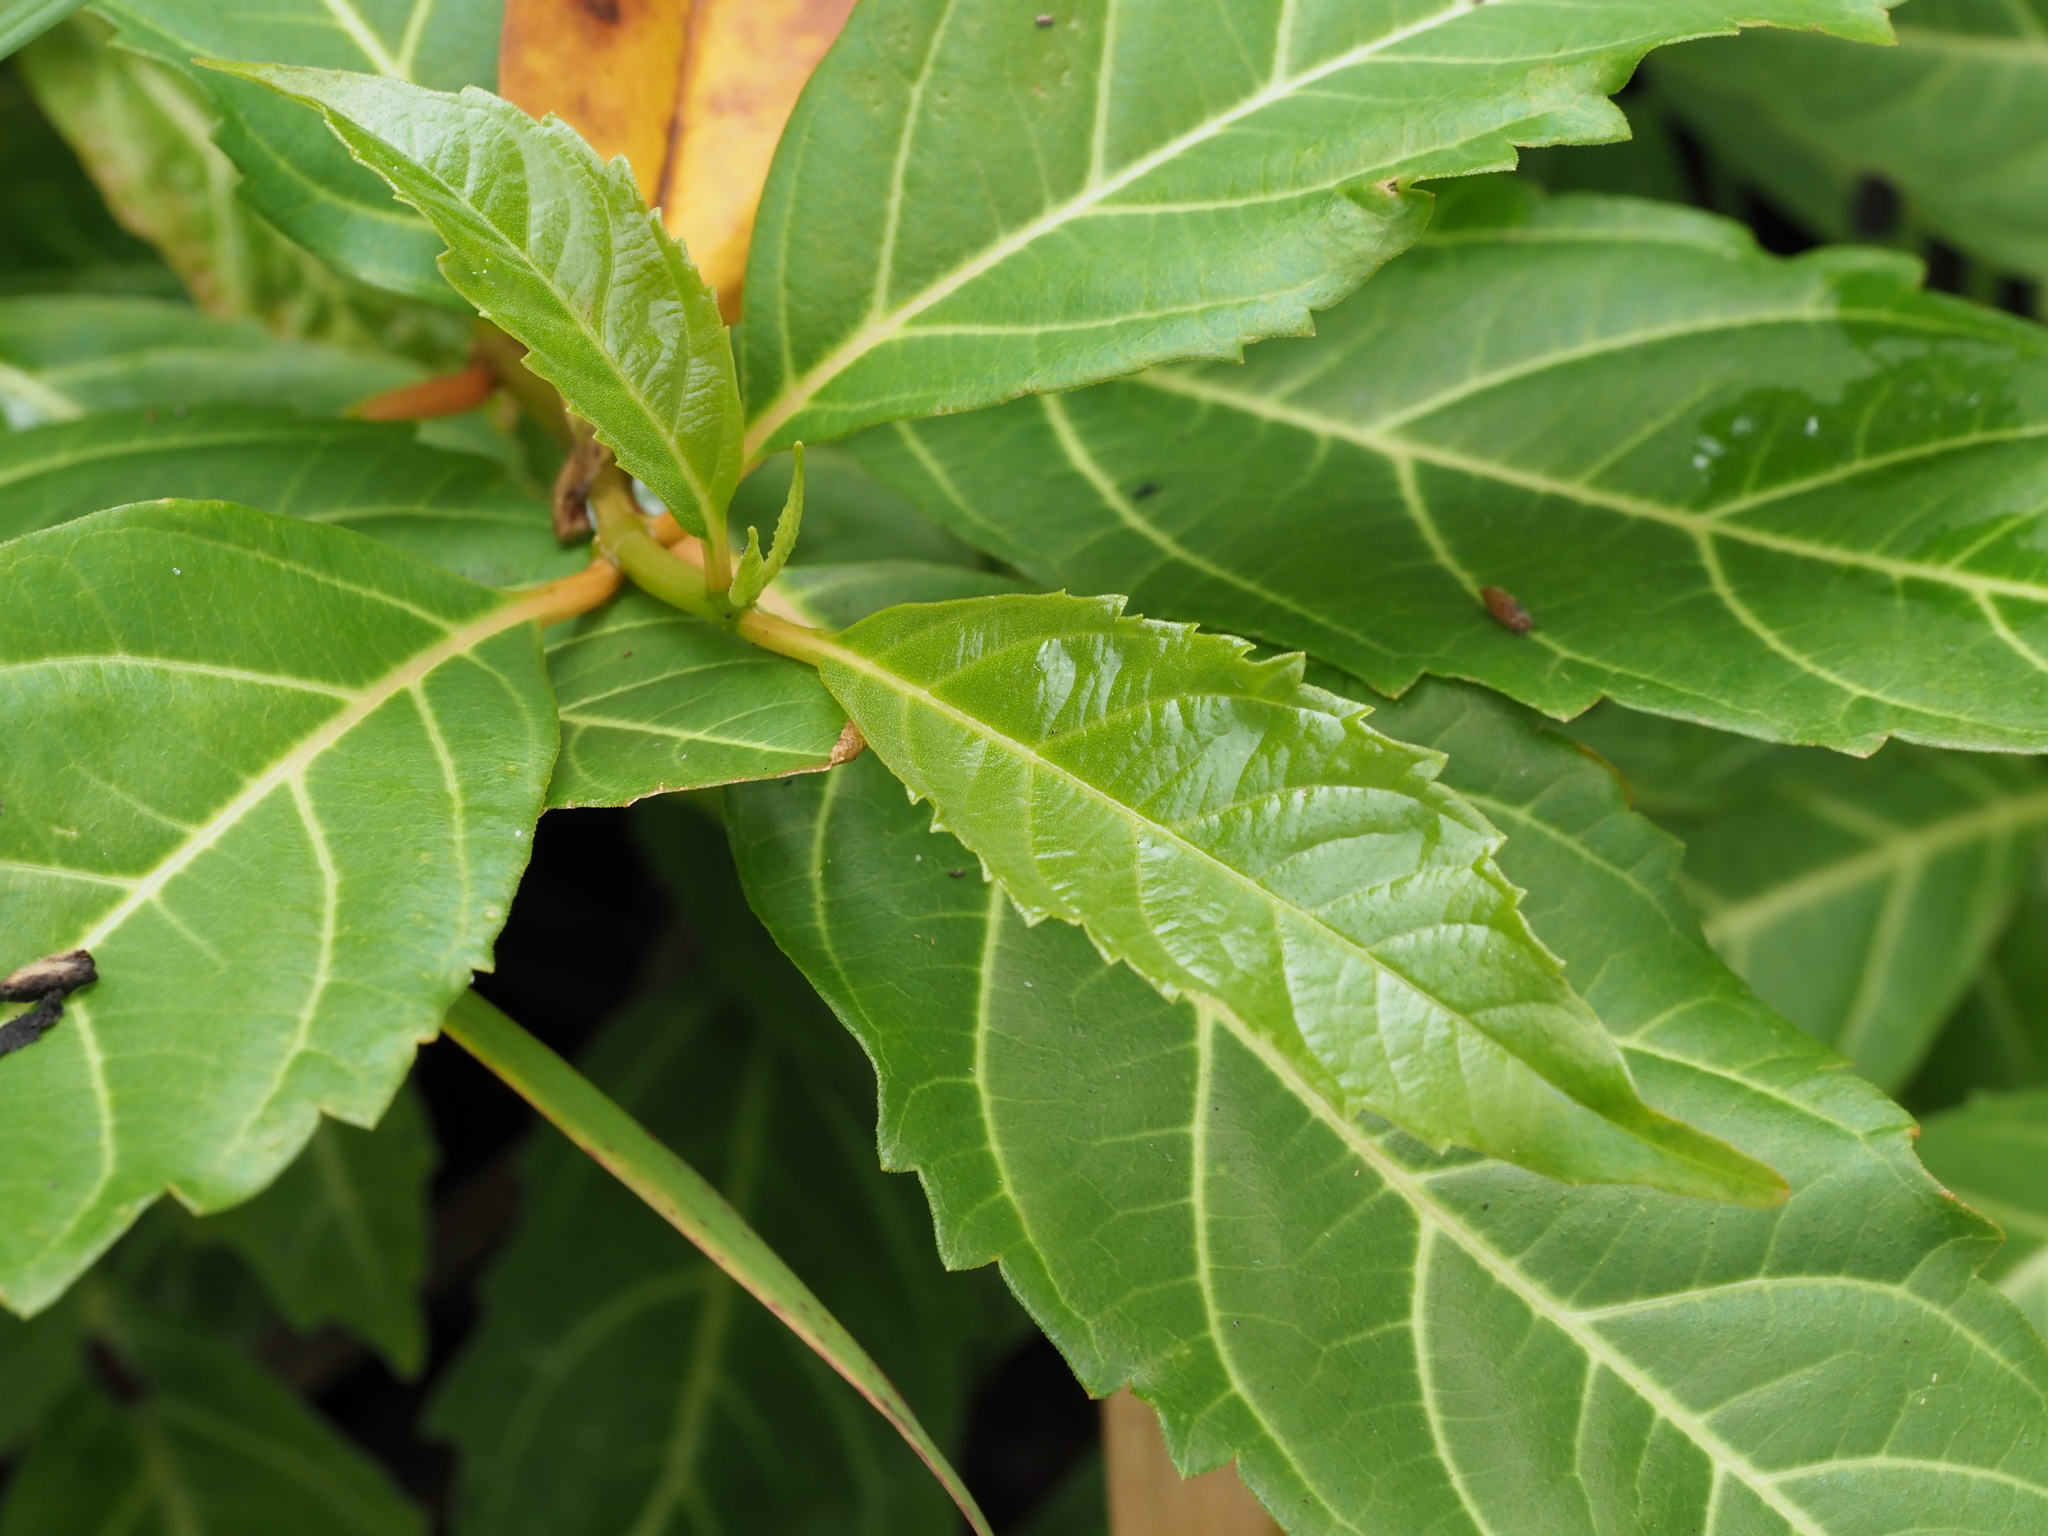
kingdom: Plantae
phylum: Tracheophyta
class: Magnoliopsida
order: Lamiales
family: Verbenaceae
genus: Citharexylum
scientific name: Citharexylum spinosum
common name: Fiddlewood
